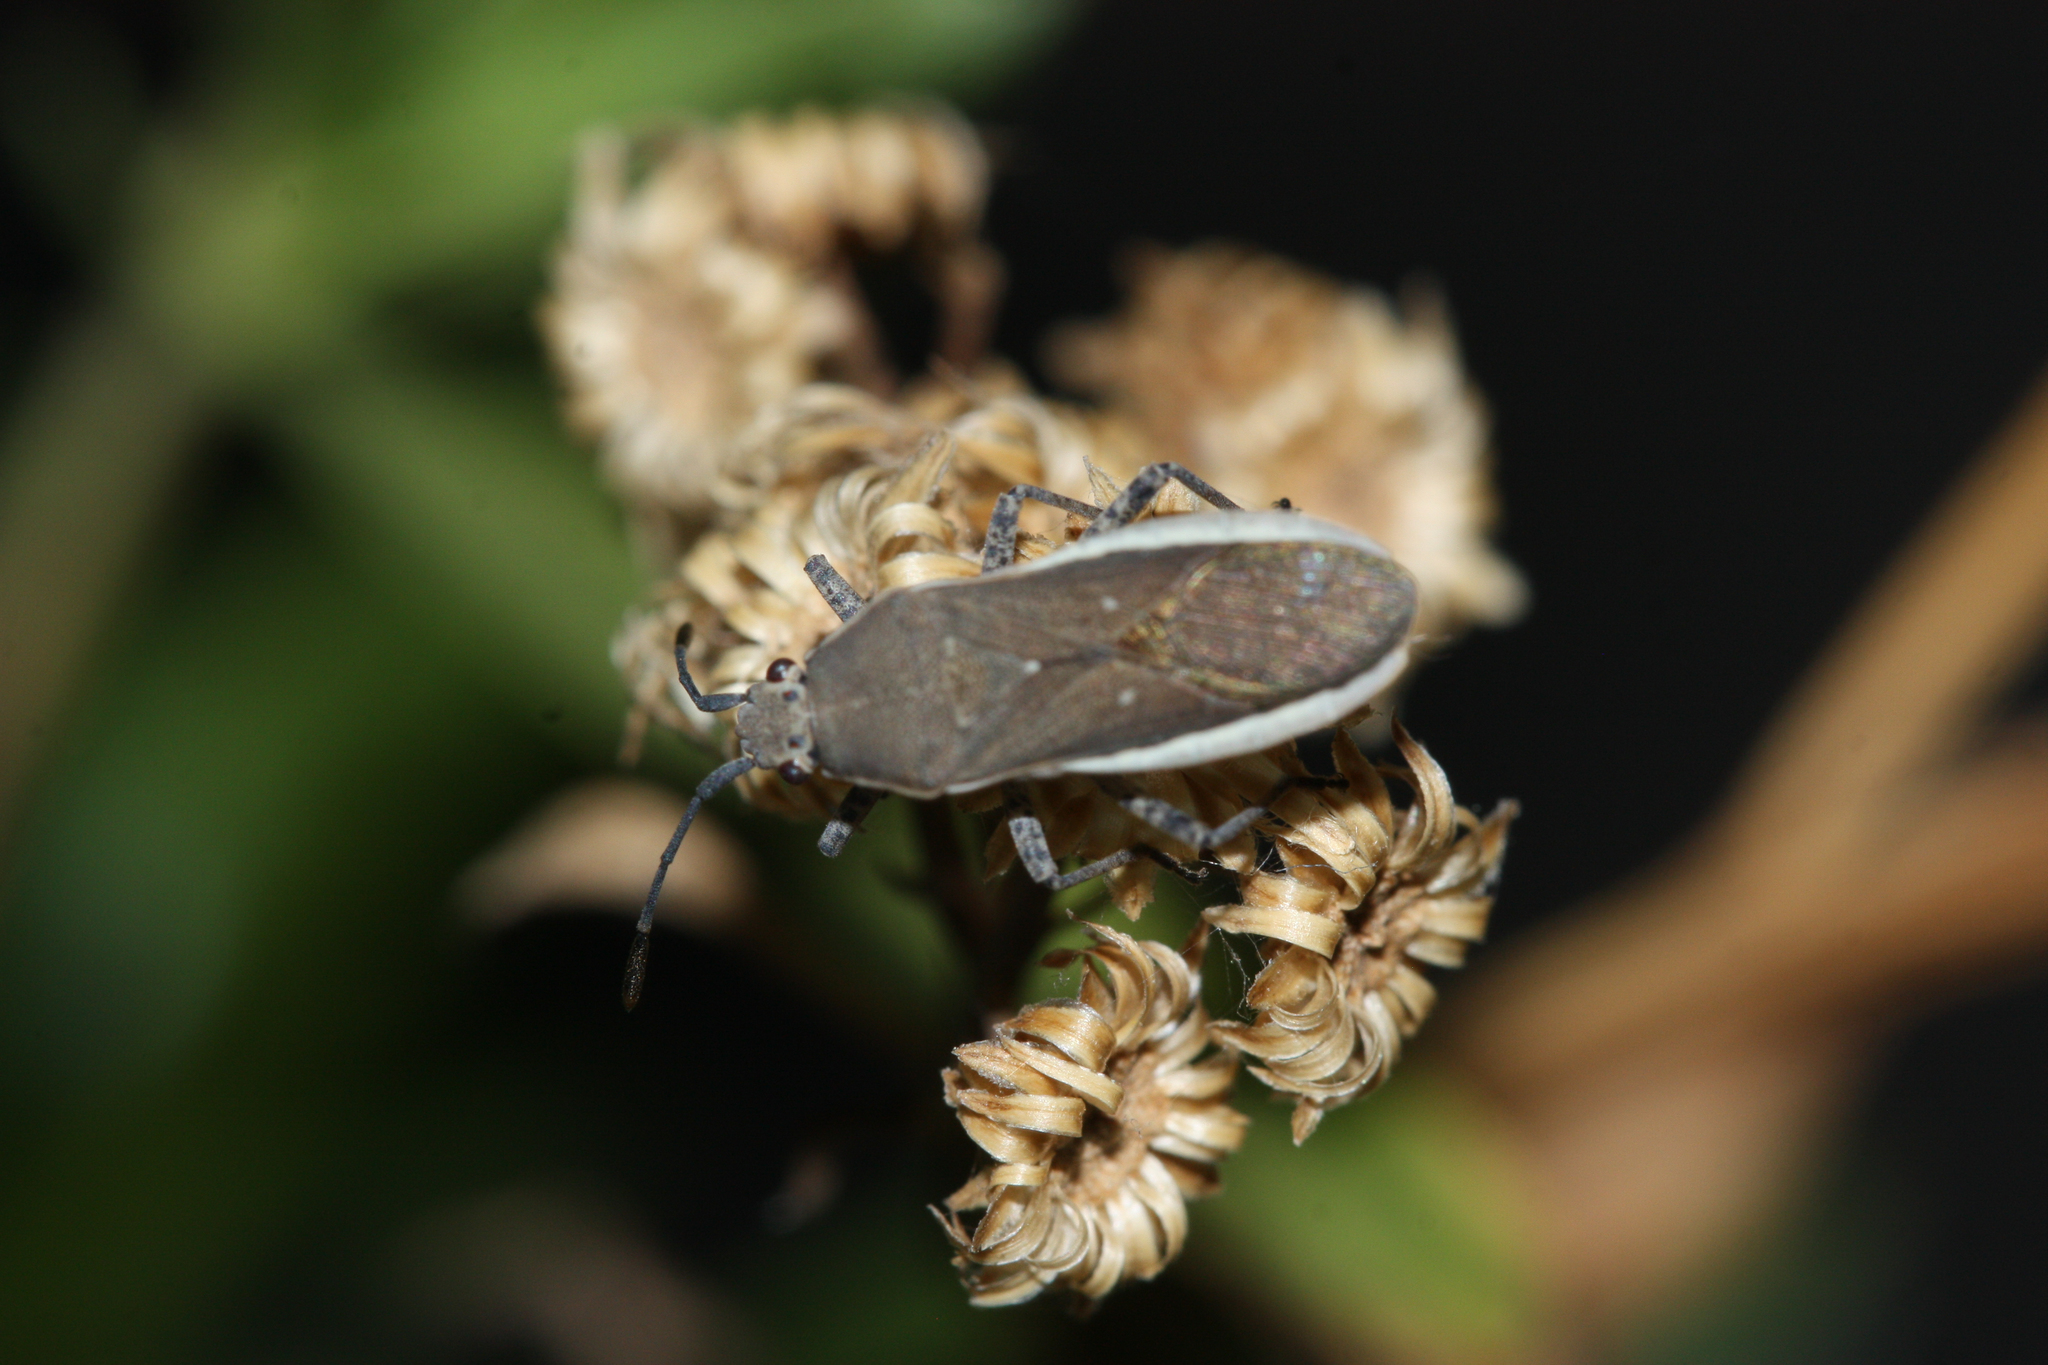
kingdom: Animalia
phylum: Arthropoda
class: Insecta
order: Hemiptera
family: Coreidae
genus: Catorhintha
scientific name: Catorhintha selector
